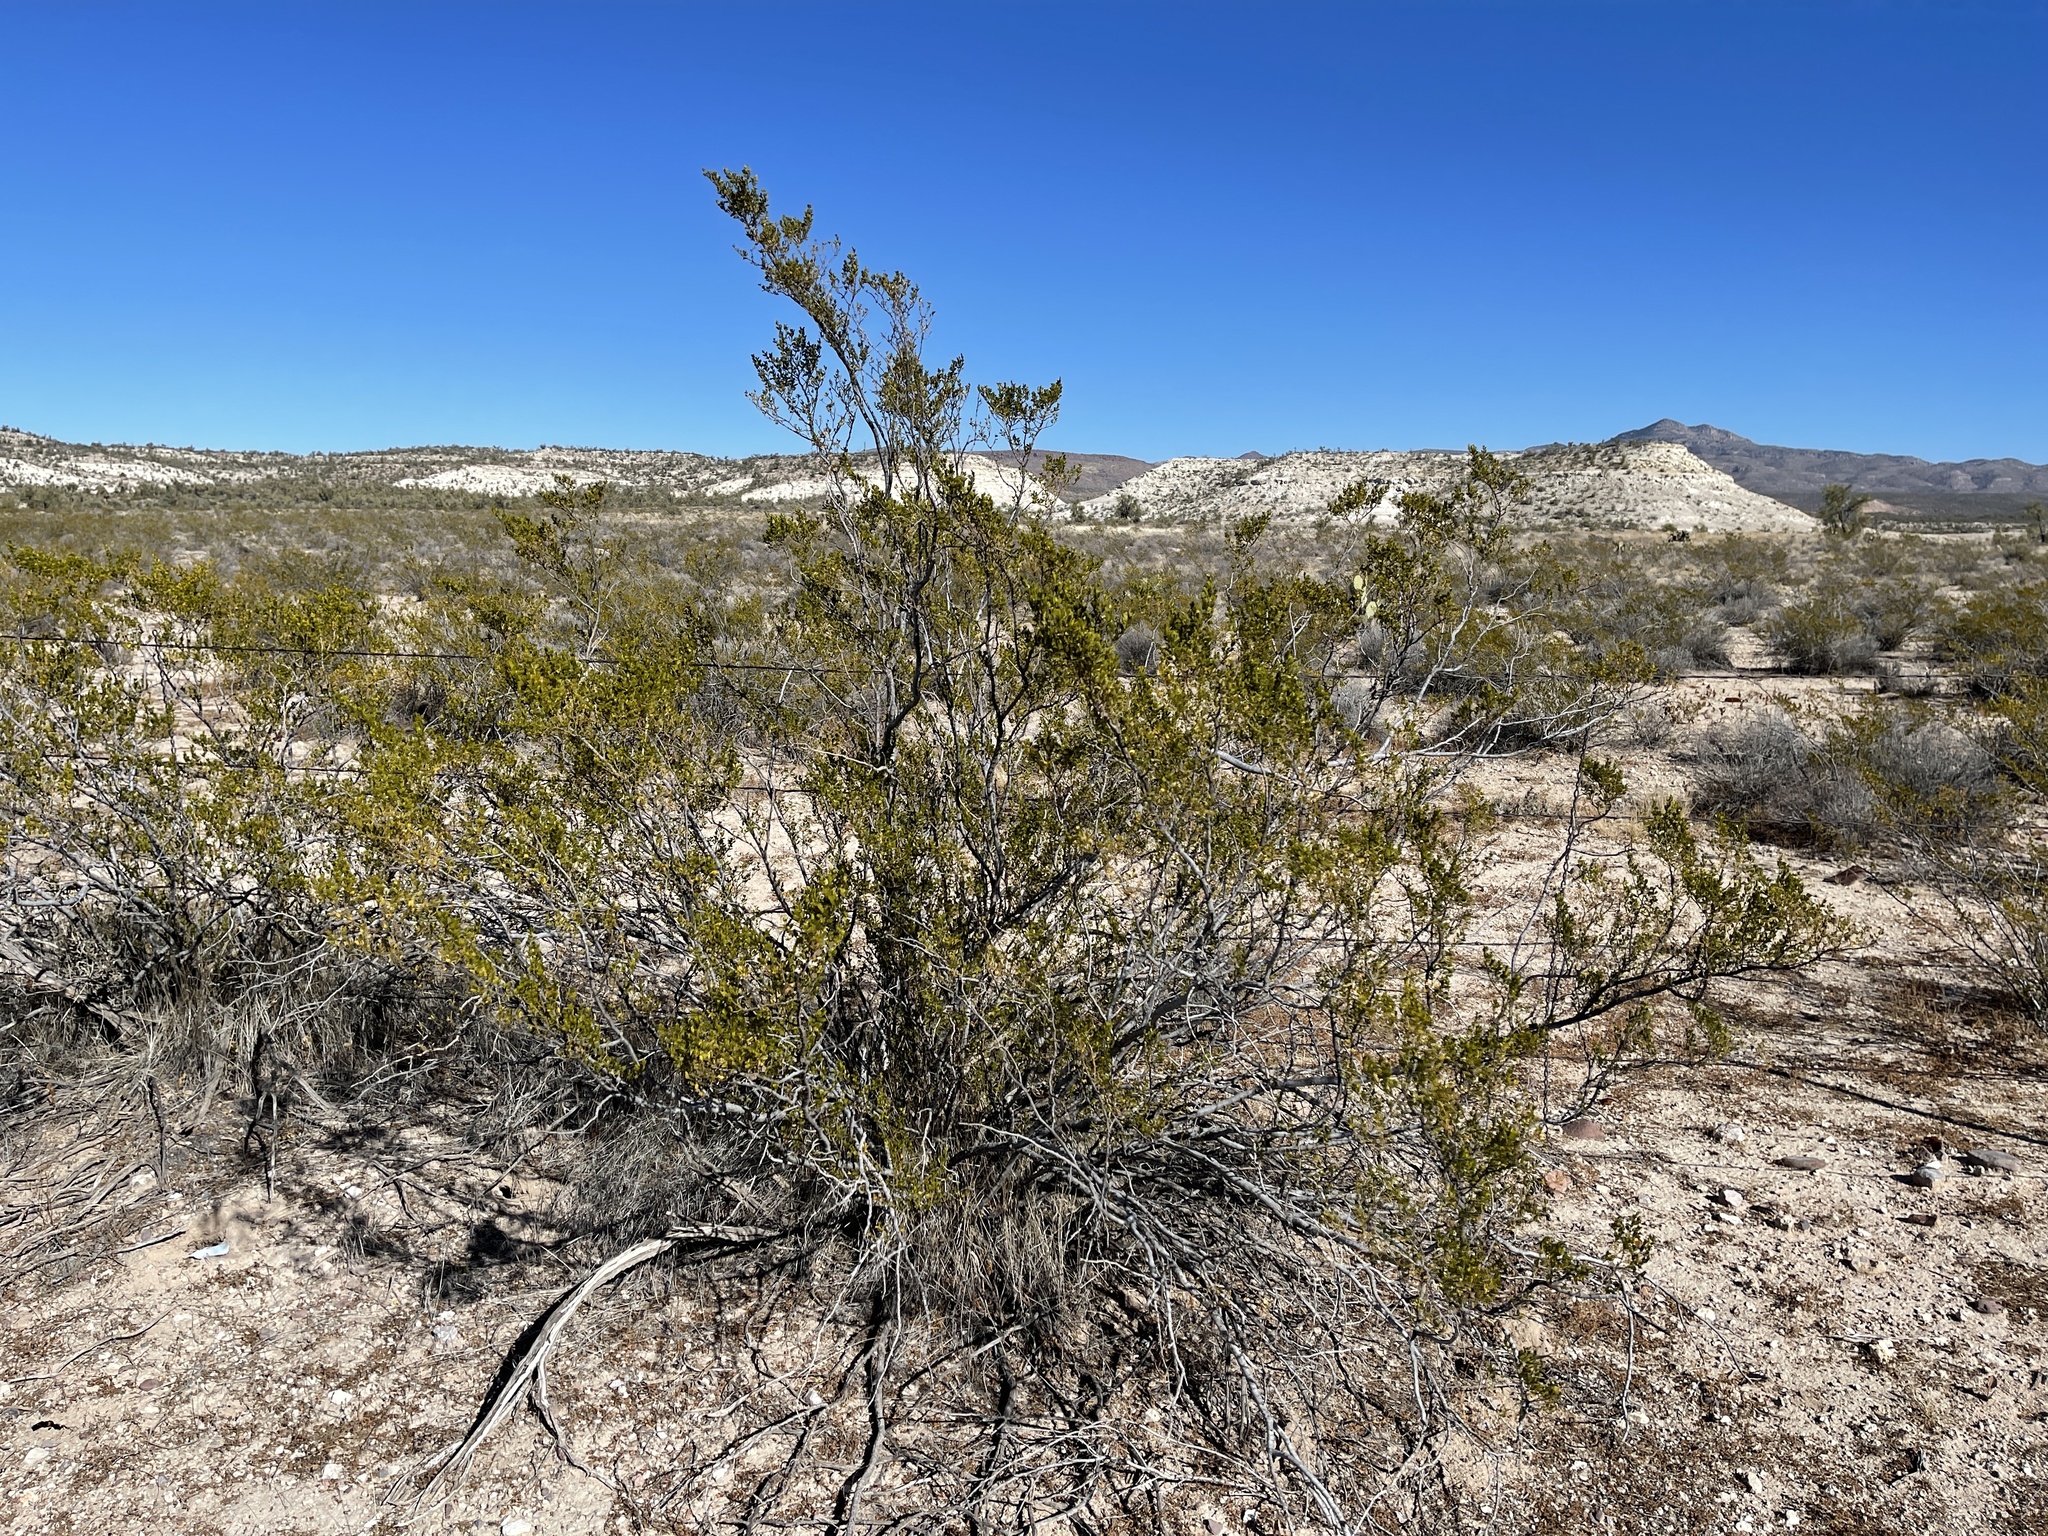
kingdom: Plantae
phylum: Tracheophyta
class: Magnoliopsida
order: Zygophyllales
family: Zygophyllaceae
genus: Larrea
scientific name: Larrea tridentata
